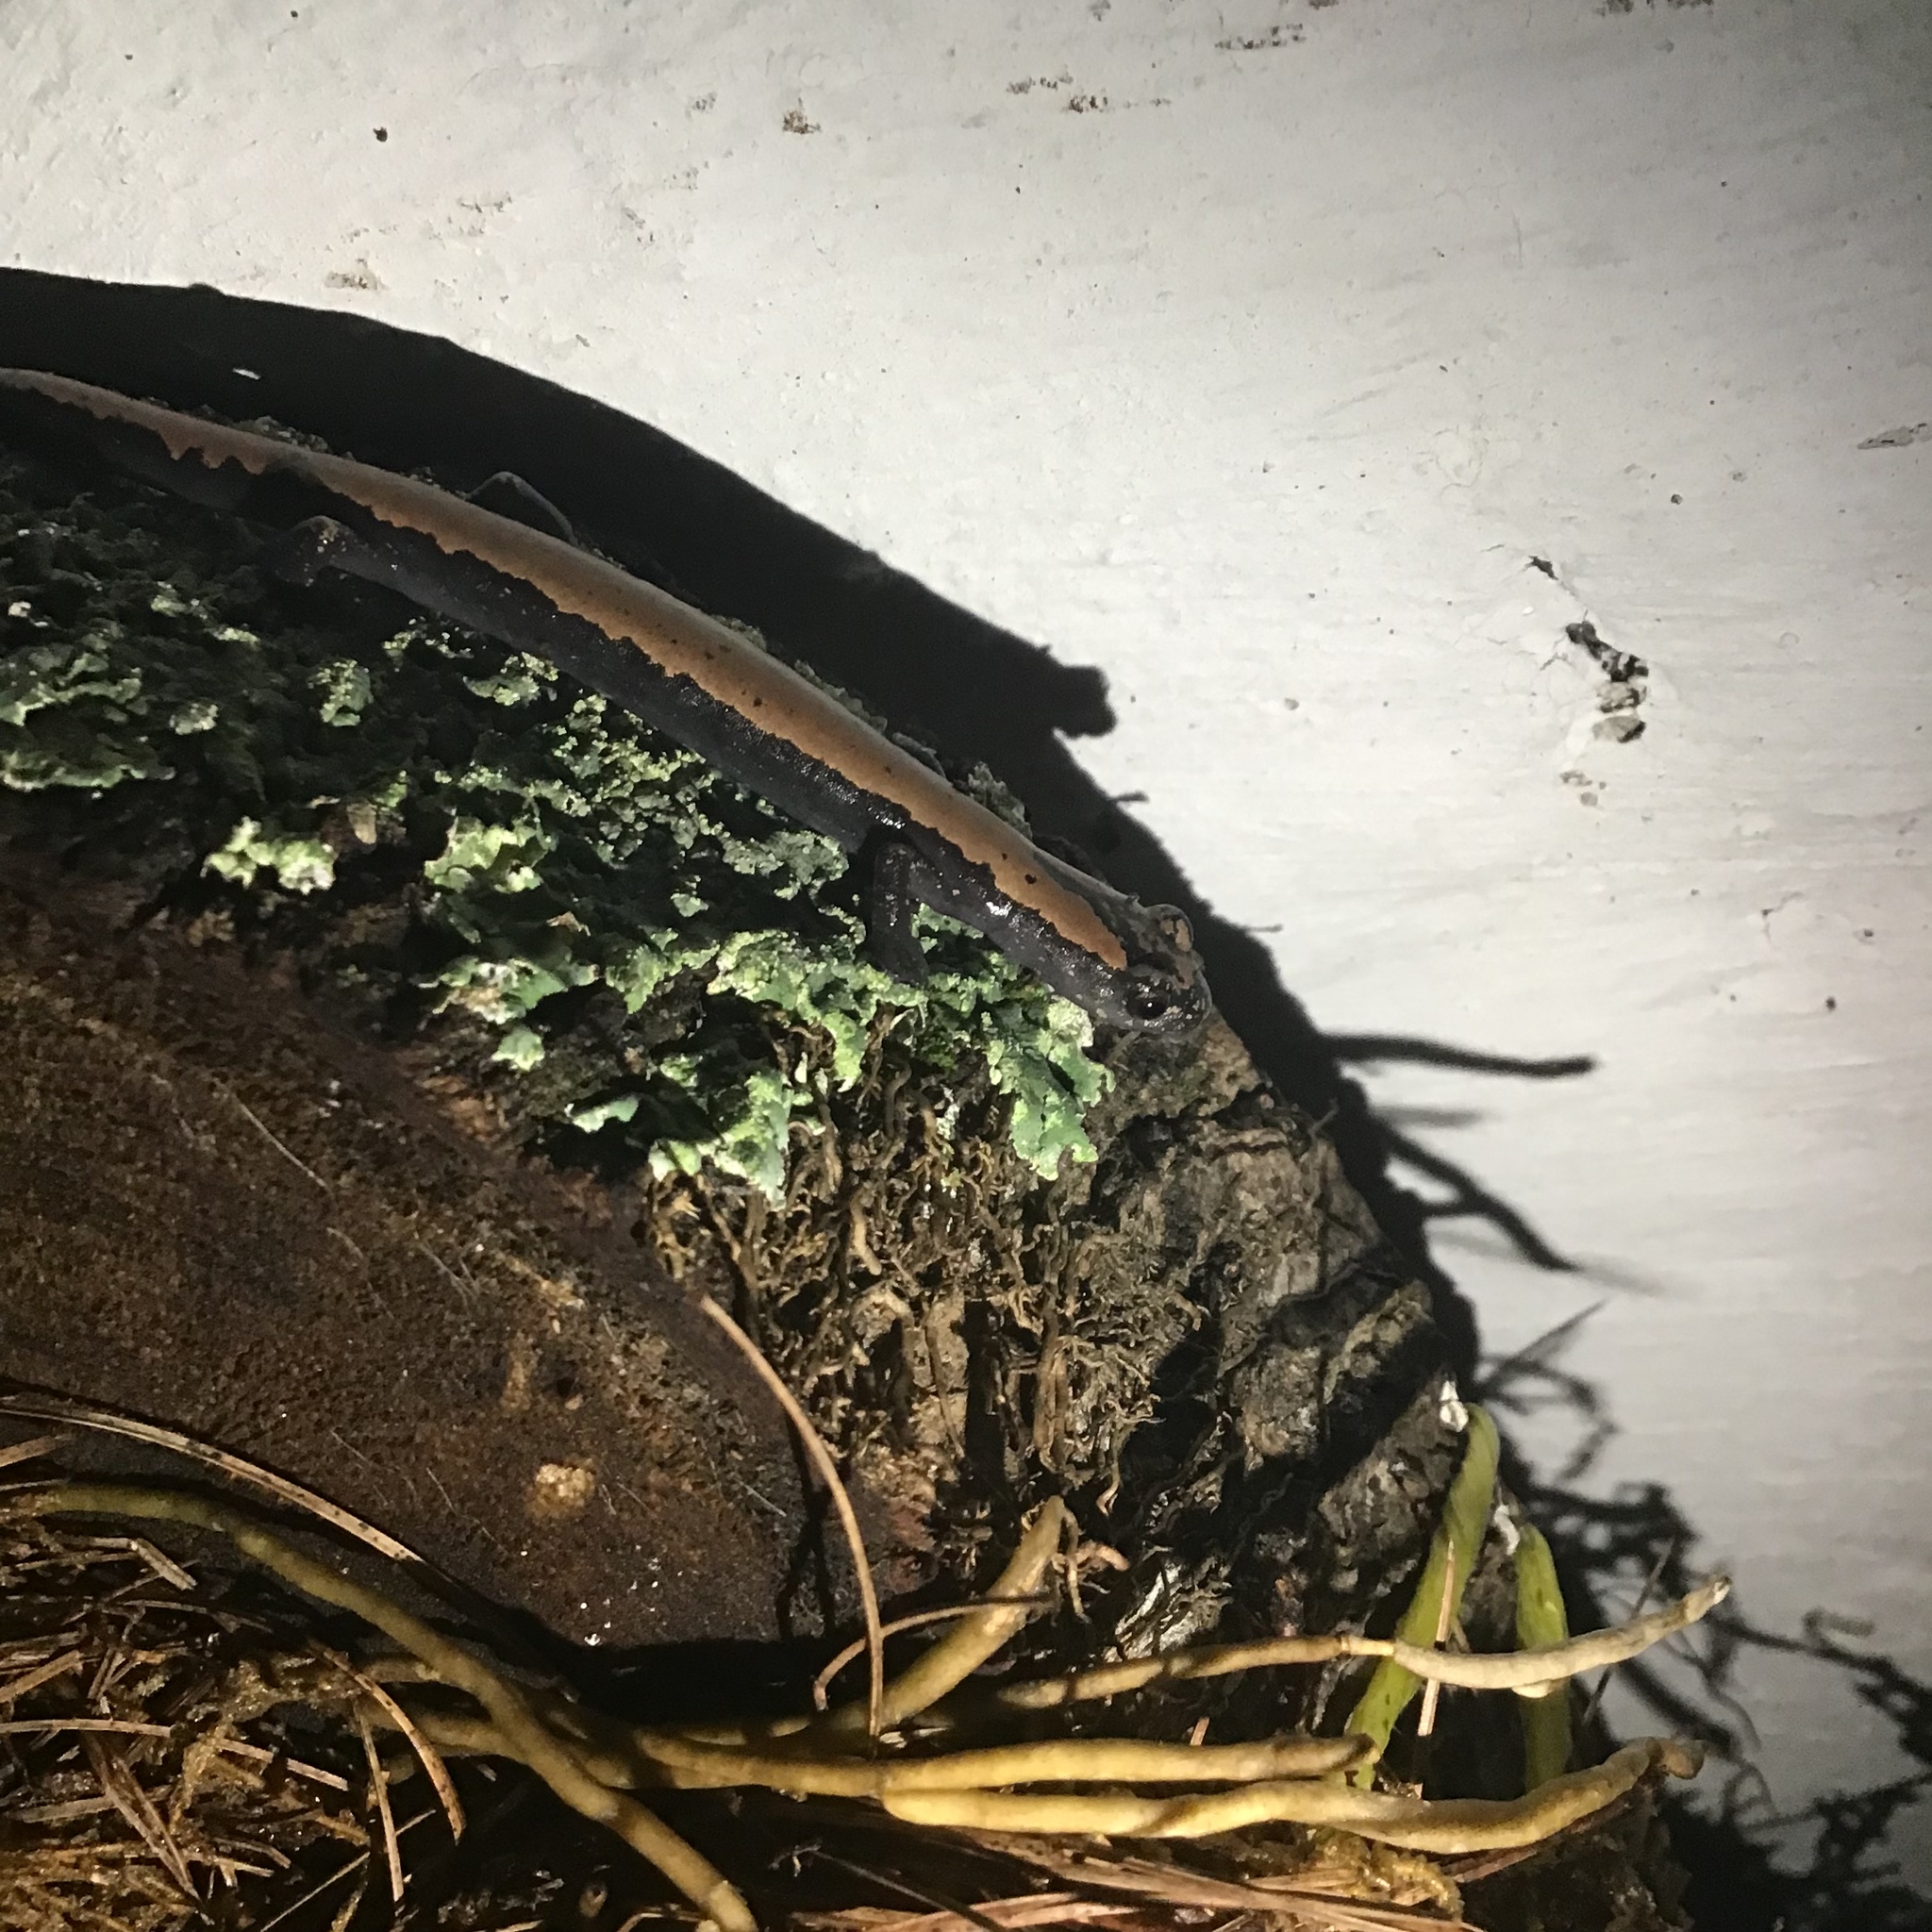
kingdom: Animalia
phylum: Chordata
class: Amphibia
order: Caudata
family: Plethodontidae
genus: Bolitoglossa
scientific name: Bolitoglossa platydactyla
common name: Broad-footed salamander
